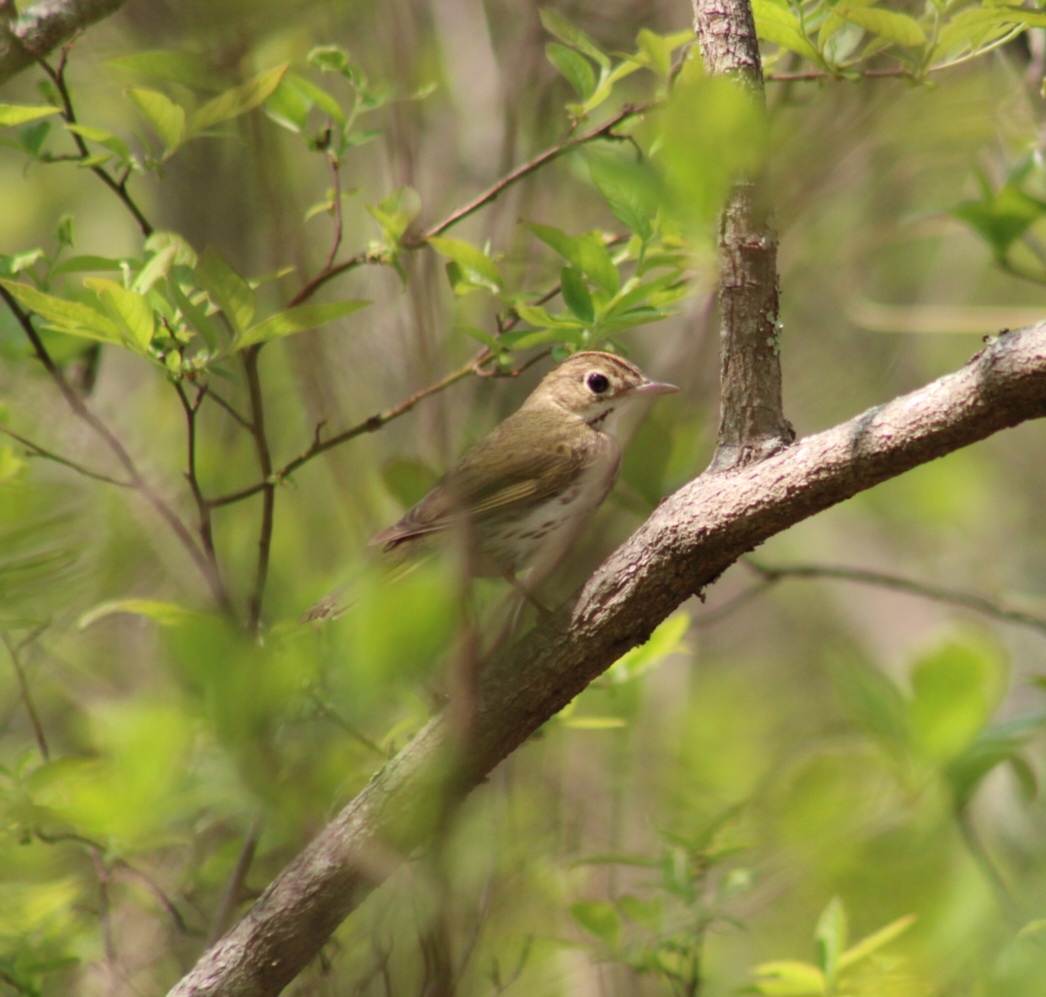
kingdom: Animalia
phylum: Chordata
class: Aves
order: Passeriformes
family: Parulidae
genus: Seiurus
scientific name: Seiurus aurocapilla
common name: Ovenbird
